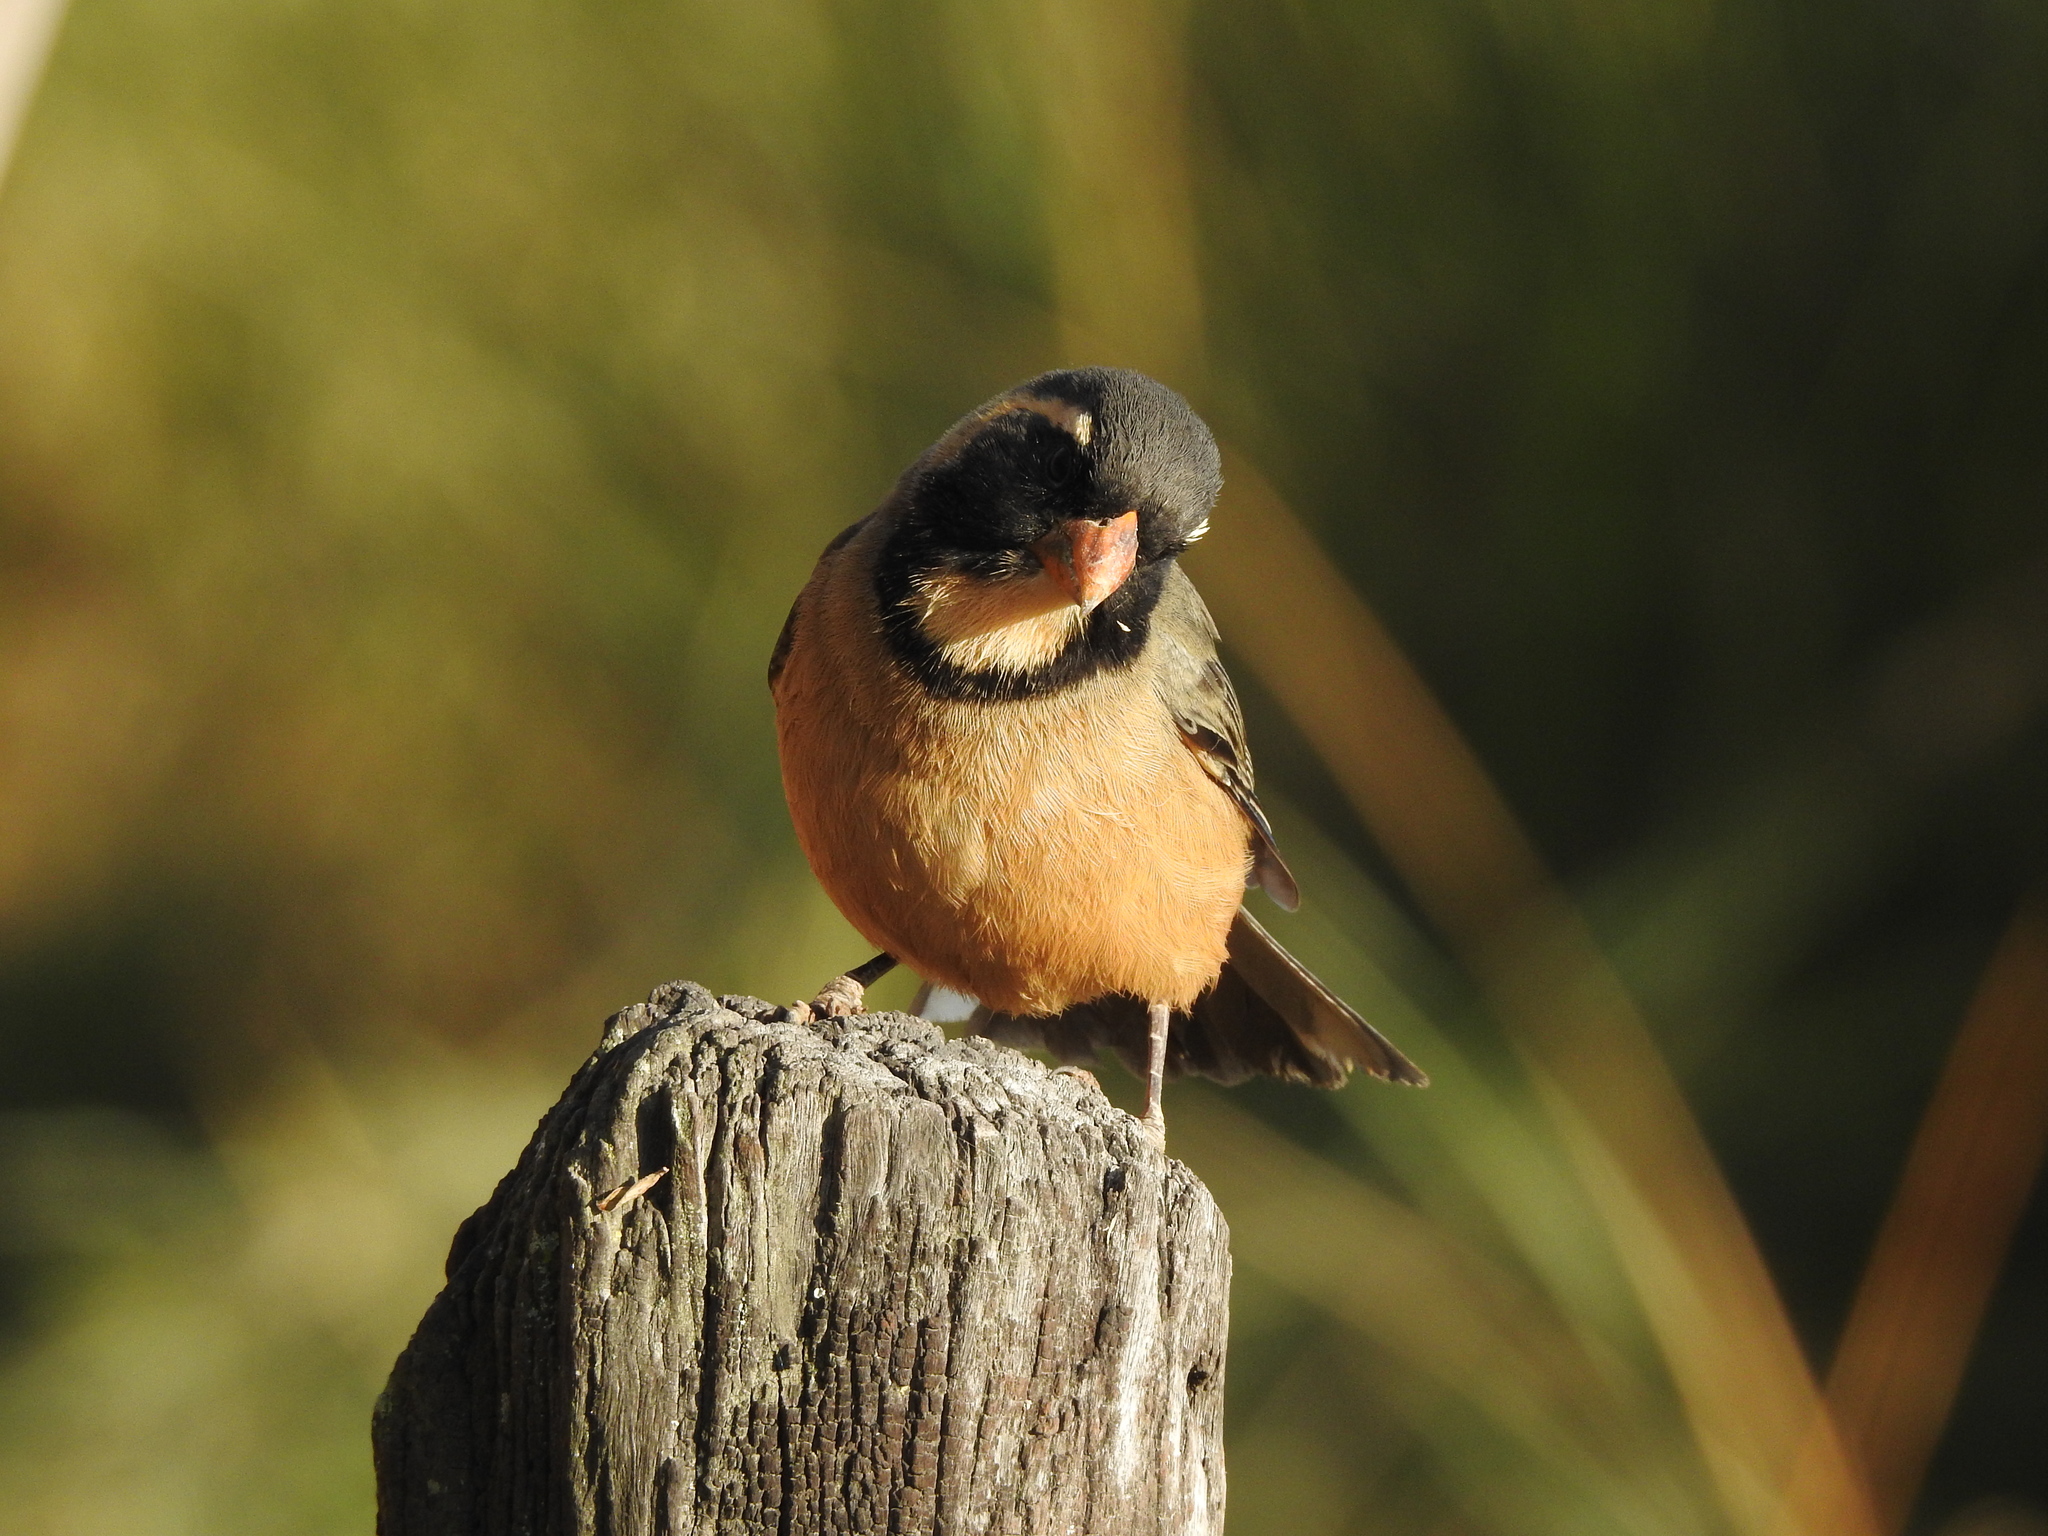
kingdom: Animalia
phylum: Chordata
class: Aves
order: Passeriformes
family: Thraupidae
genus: Saltator
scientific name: Saltator aurantiirostris
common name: Golden-billed saltator
